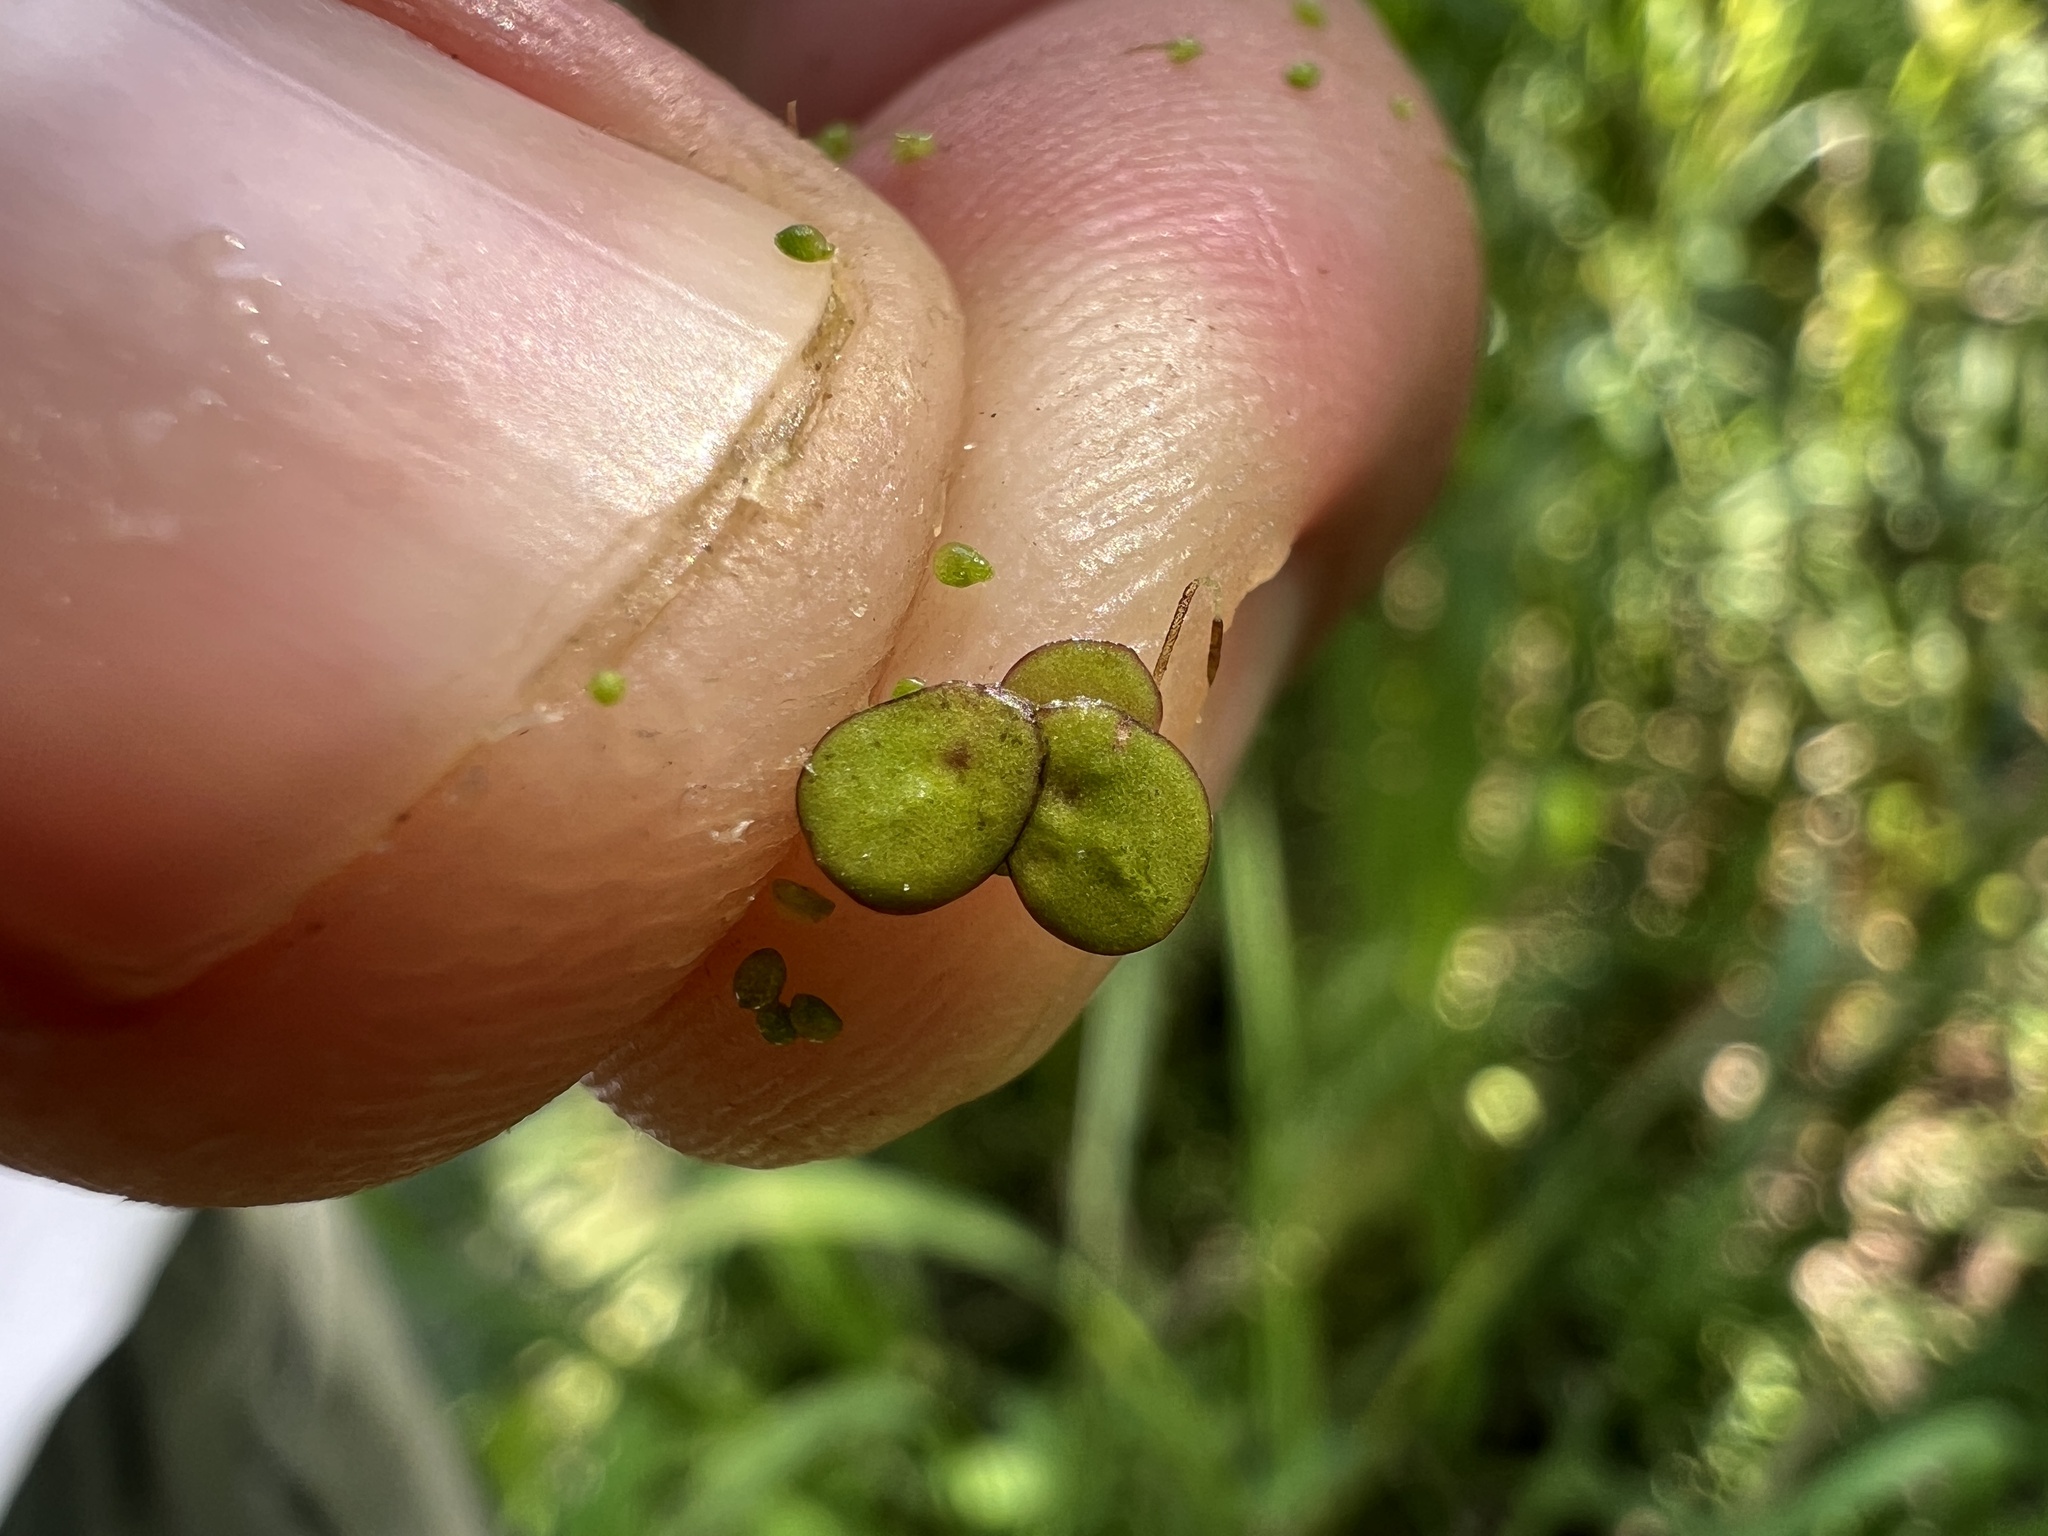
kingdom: Plantae
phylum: Tracheophyta
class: Liliopsida
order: Alismatales
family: Araceae
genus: Spirodela
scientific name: Spirodela polyrhiza
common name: Great duckweed
